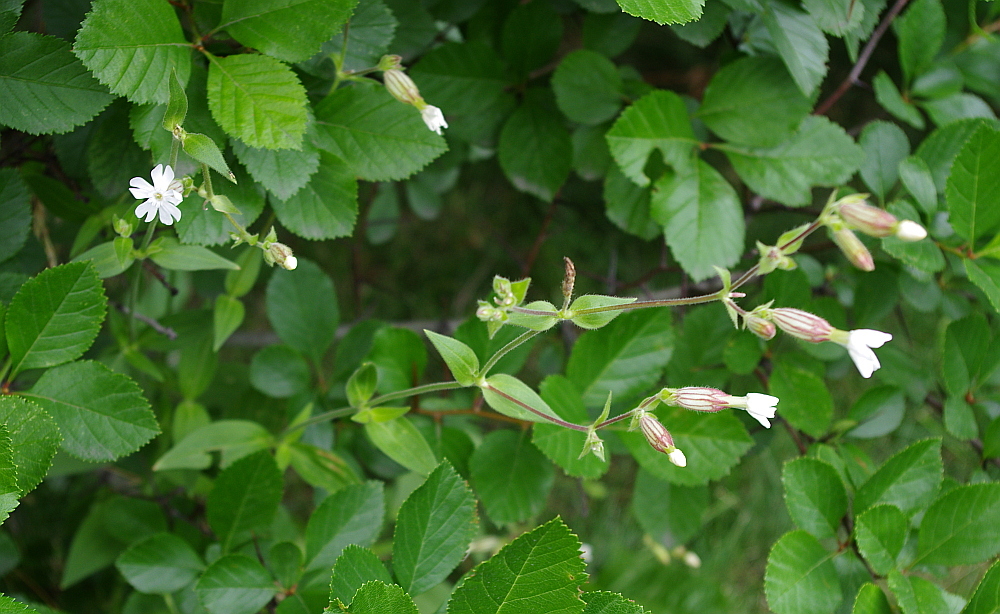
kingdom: Plantae
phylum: Tracheophyta
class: Magnoliopsida
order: Caryophyllales
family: Caryophyllaceae
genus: Silene
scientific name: Silene latifolia
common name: White campion
